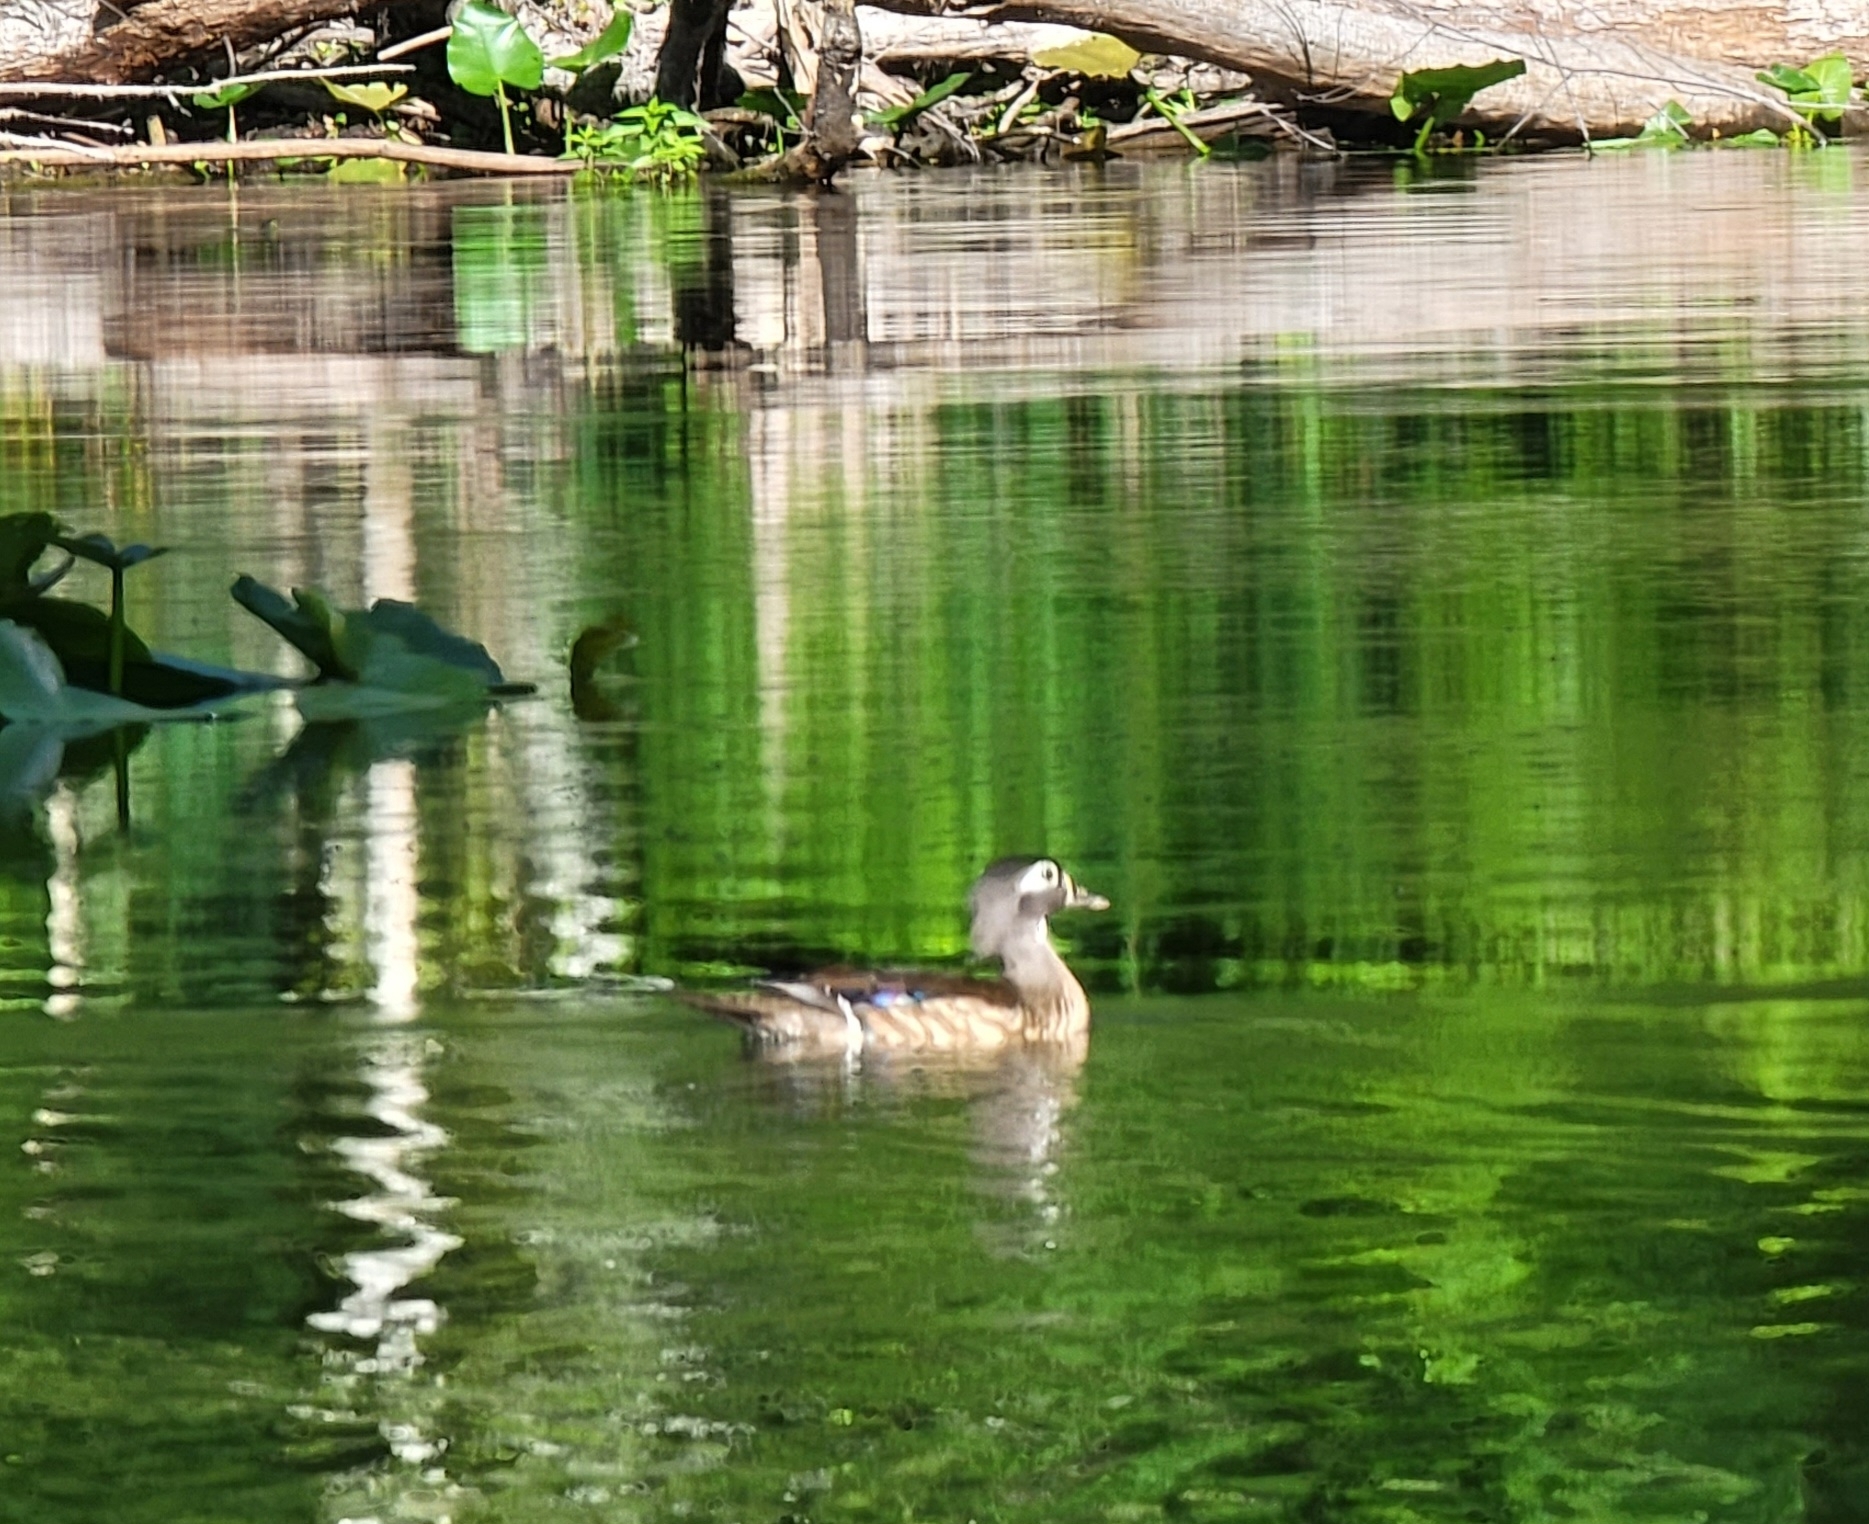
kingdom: Animalia
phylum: Chordata
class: Aves
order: Anseriformes
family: Anatidae
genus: Aix
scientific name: Aix sponsa
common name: Wood duck
